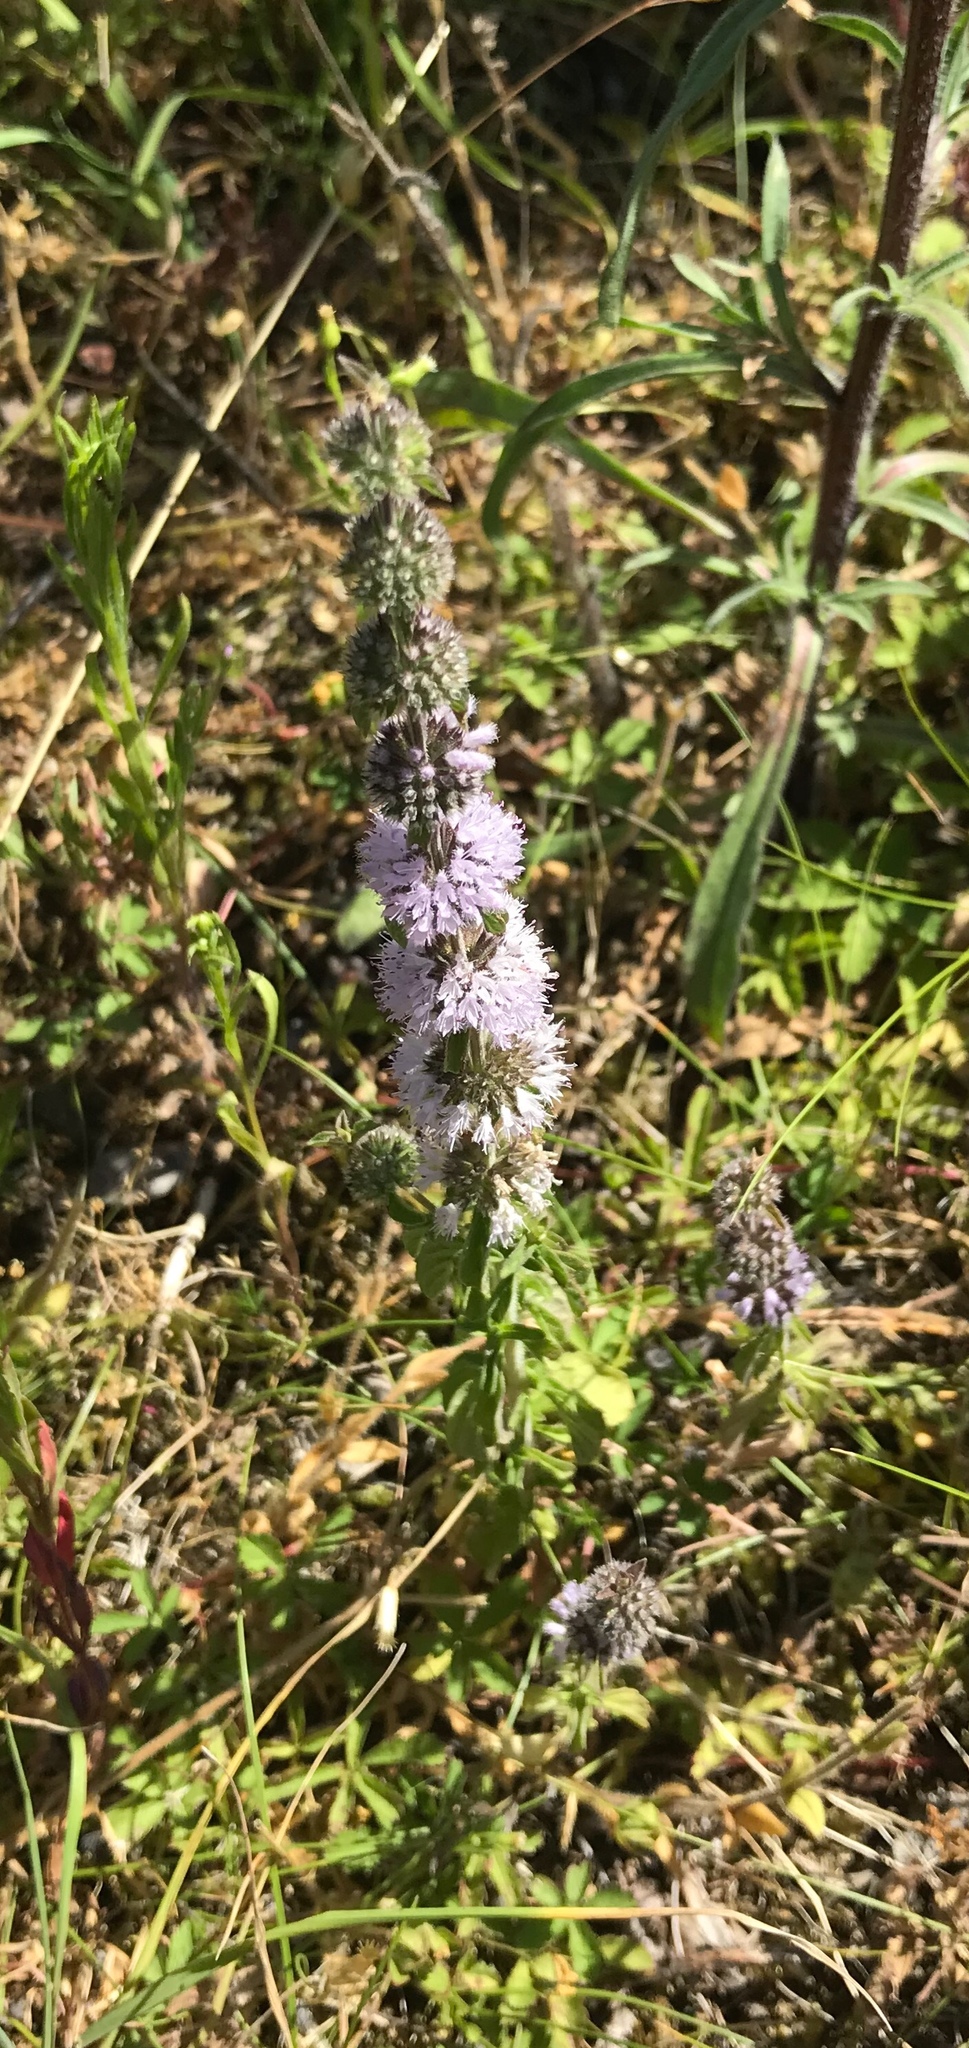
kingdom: Plantae
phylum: Tracheophyta
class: Magnoliopsida
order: Lamiales
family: Lamiaceae
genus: Mentha
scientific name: Mentha pulegium
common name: Pennyroyal
